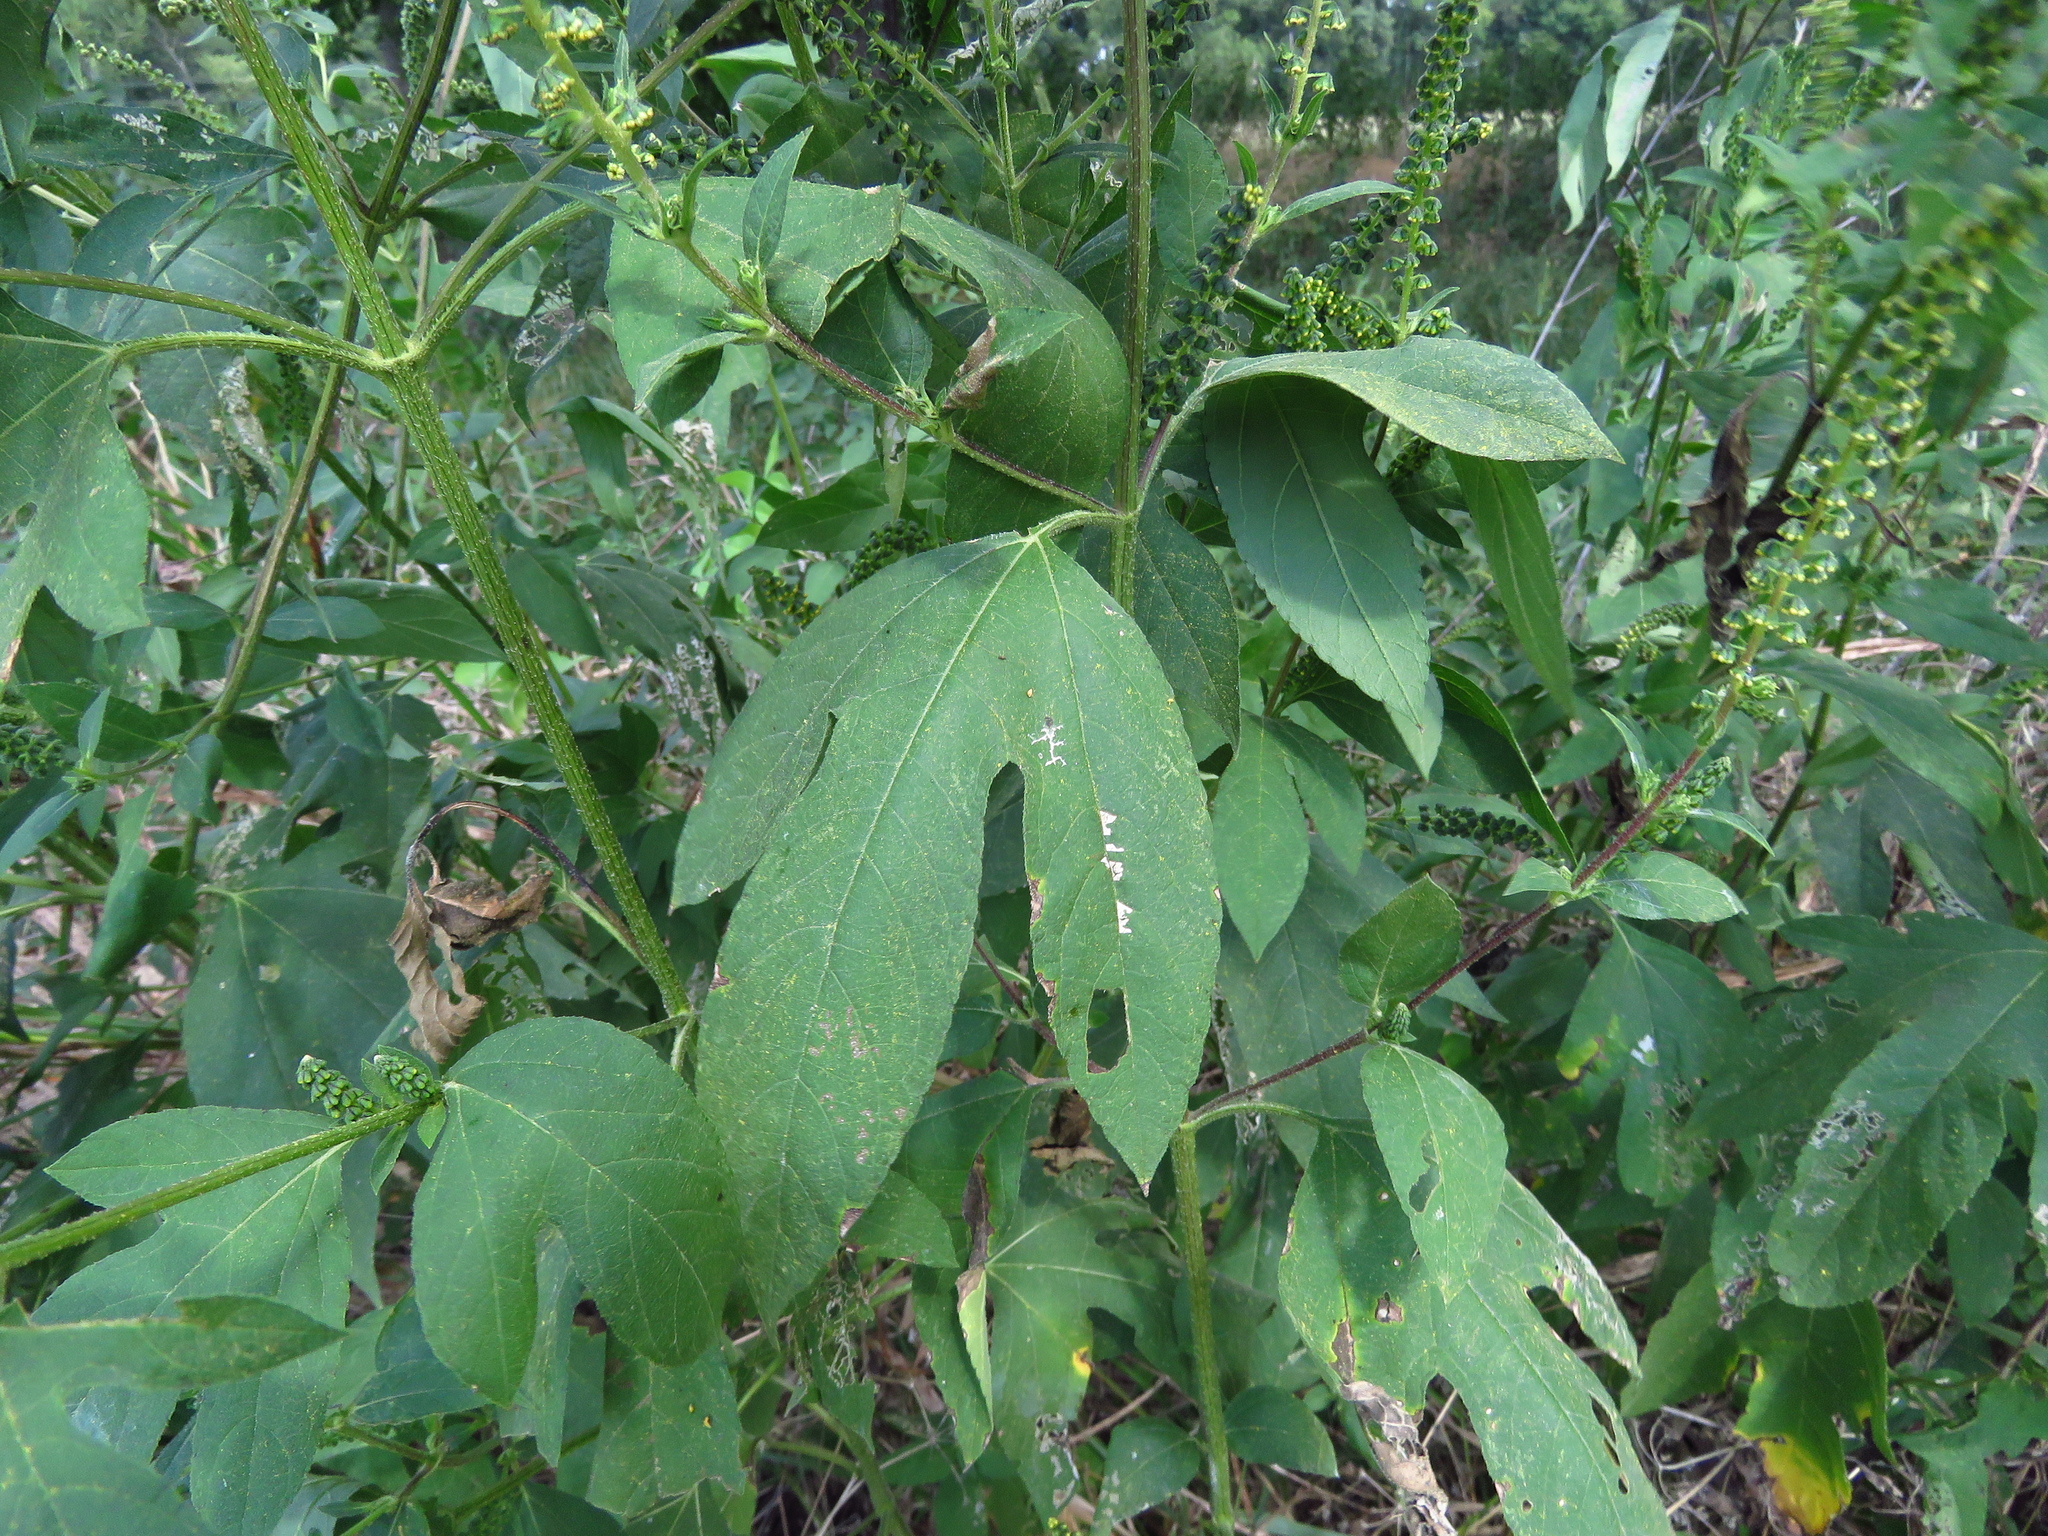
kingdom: Plantae
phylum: Tracheophyta
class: Magnoliopsida
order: Asterales
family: Asteraceae
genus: Ambrosia
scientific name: Ambrosia trifida
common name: Giant ragweed
